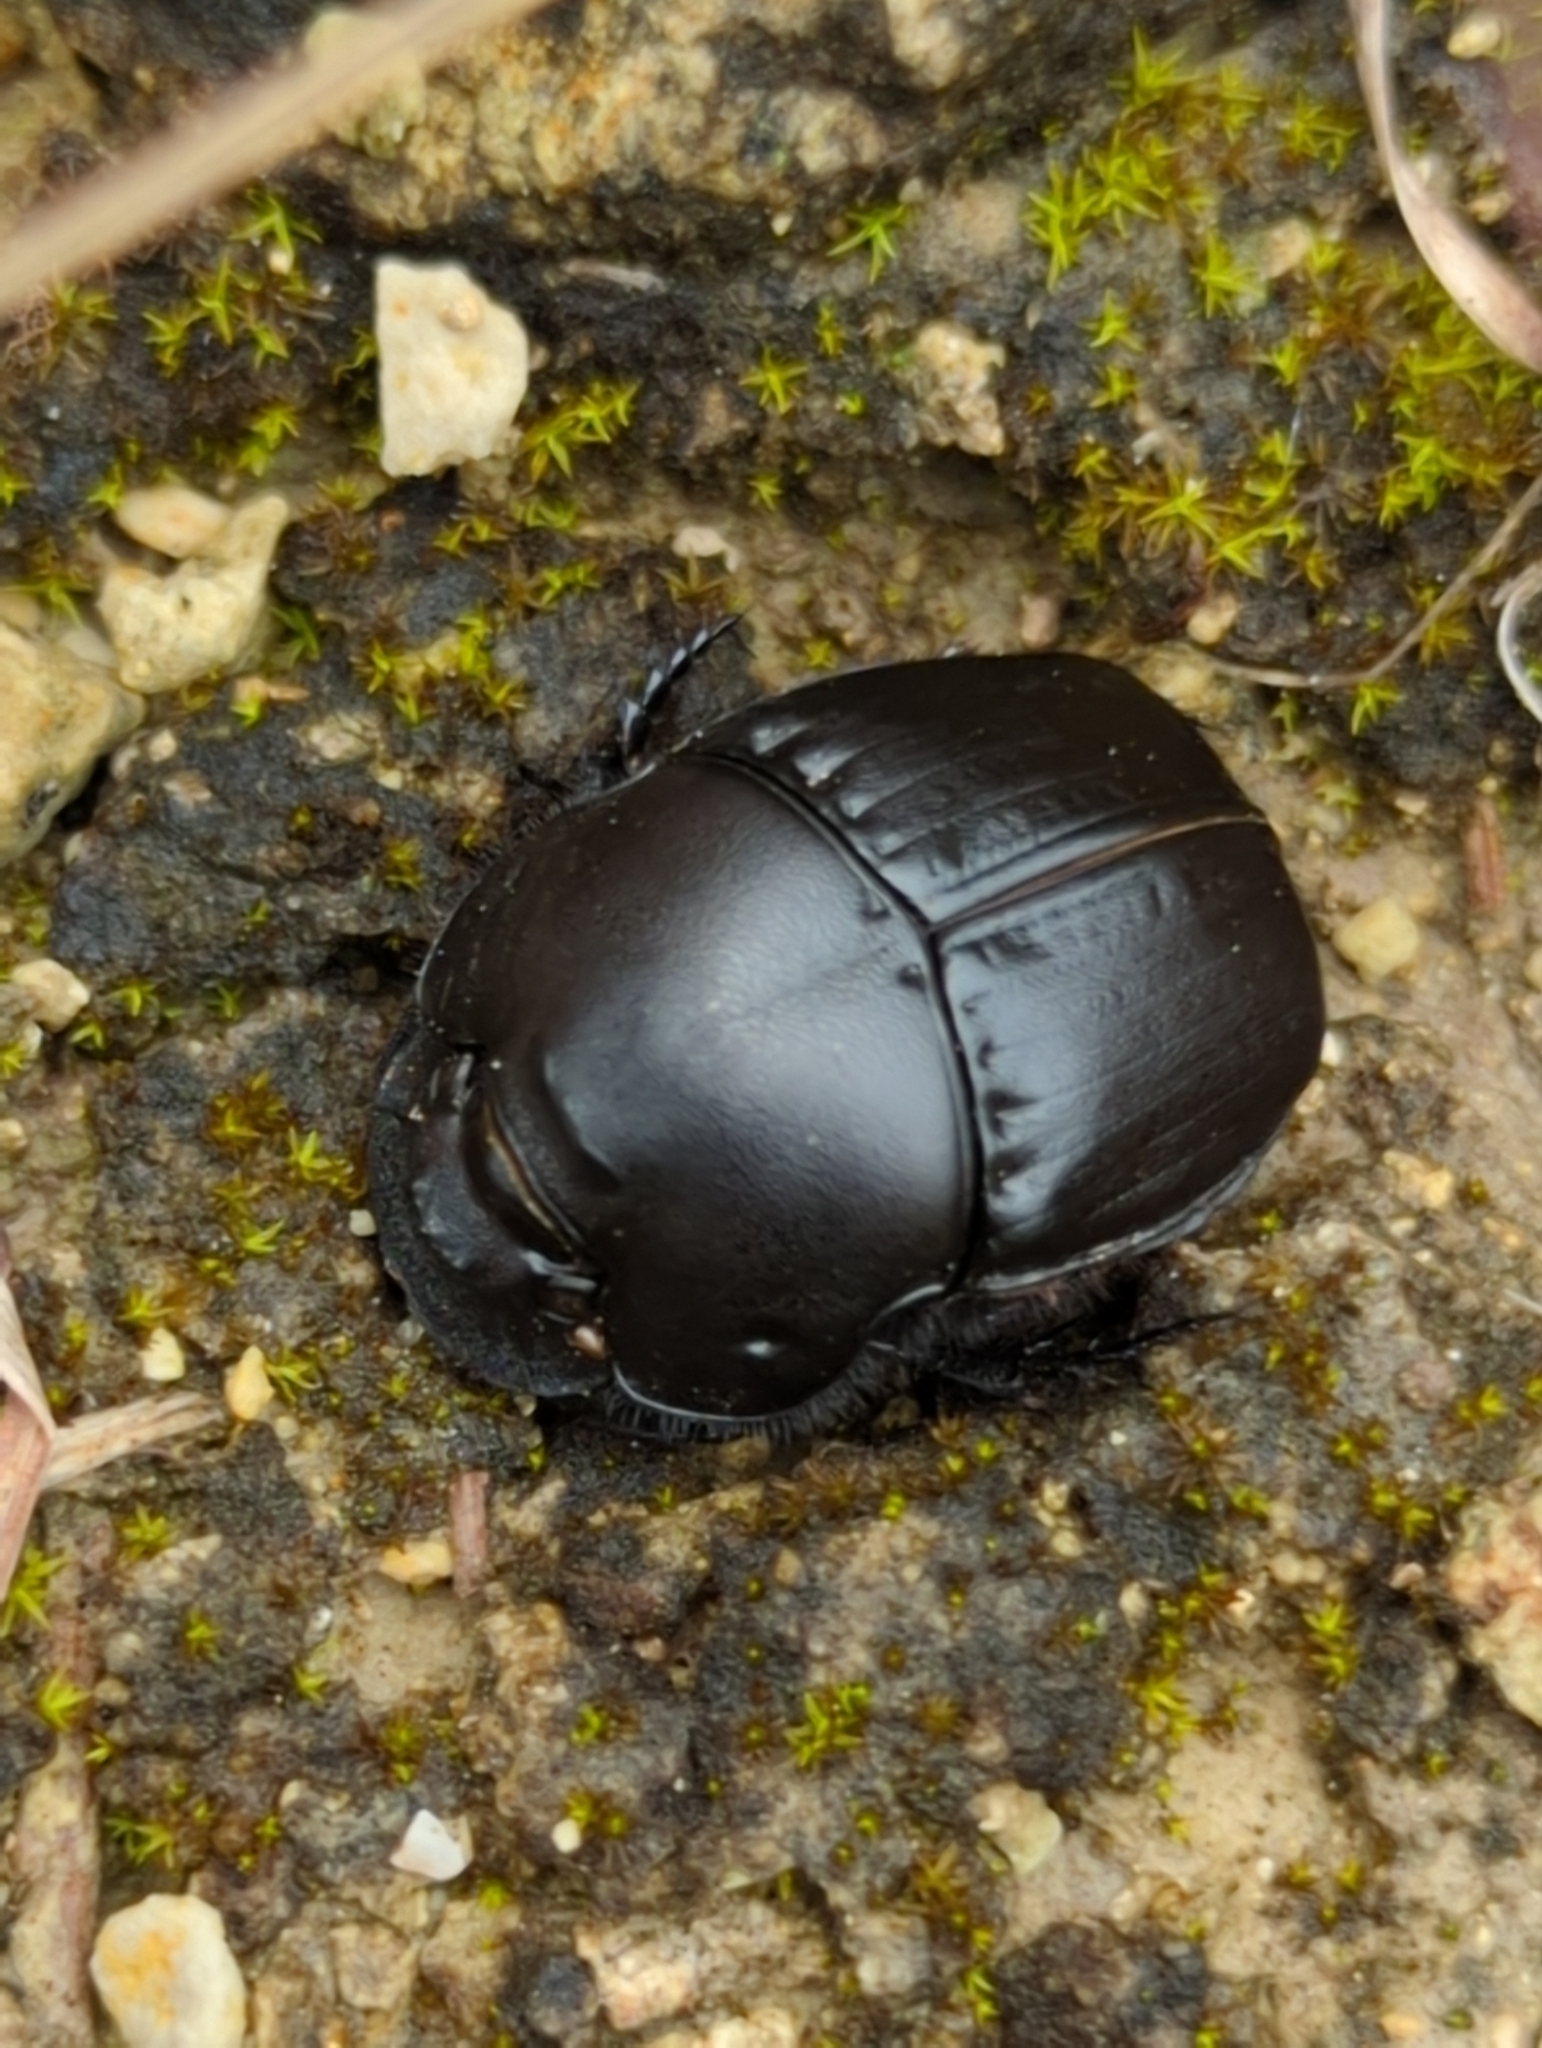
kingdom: Animalia
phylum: Arthropoda
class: Insecta
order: Coleoptera
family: Scarabaeidae
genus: Phanaeus
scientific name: Phanaeus texensis
